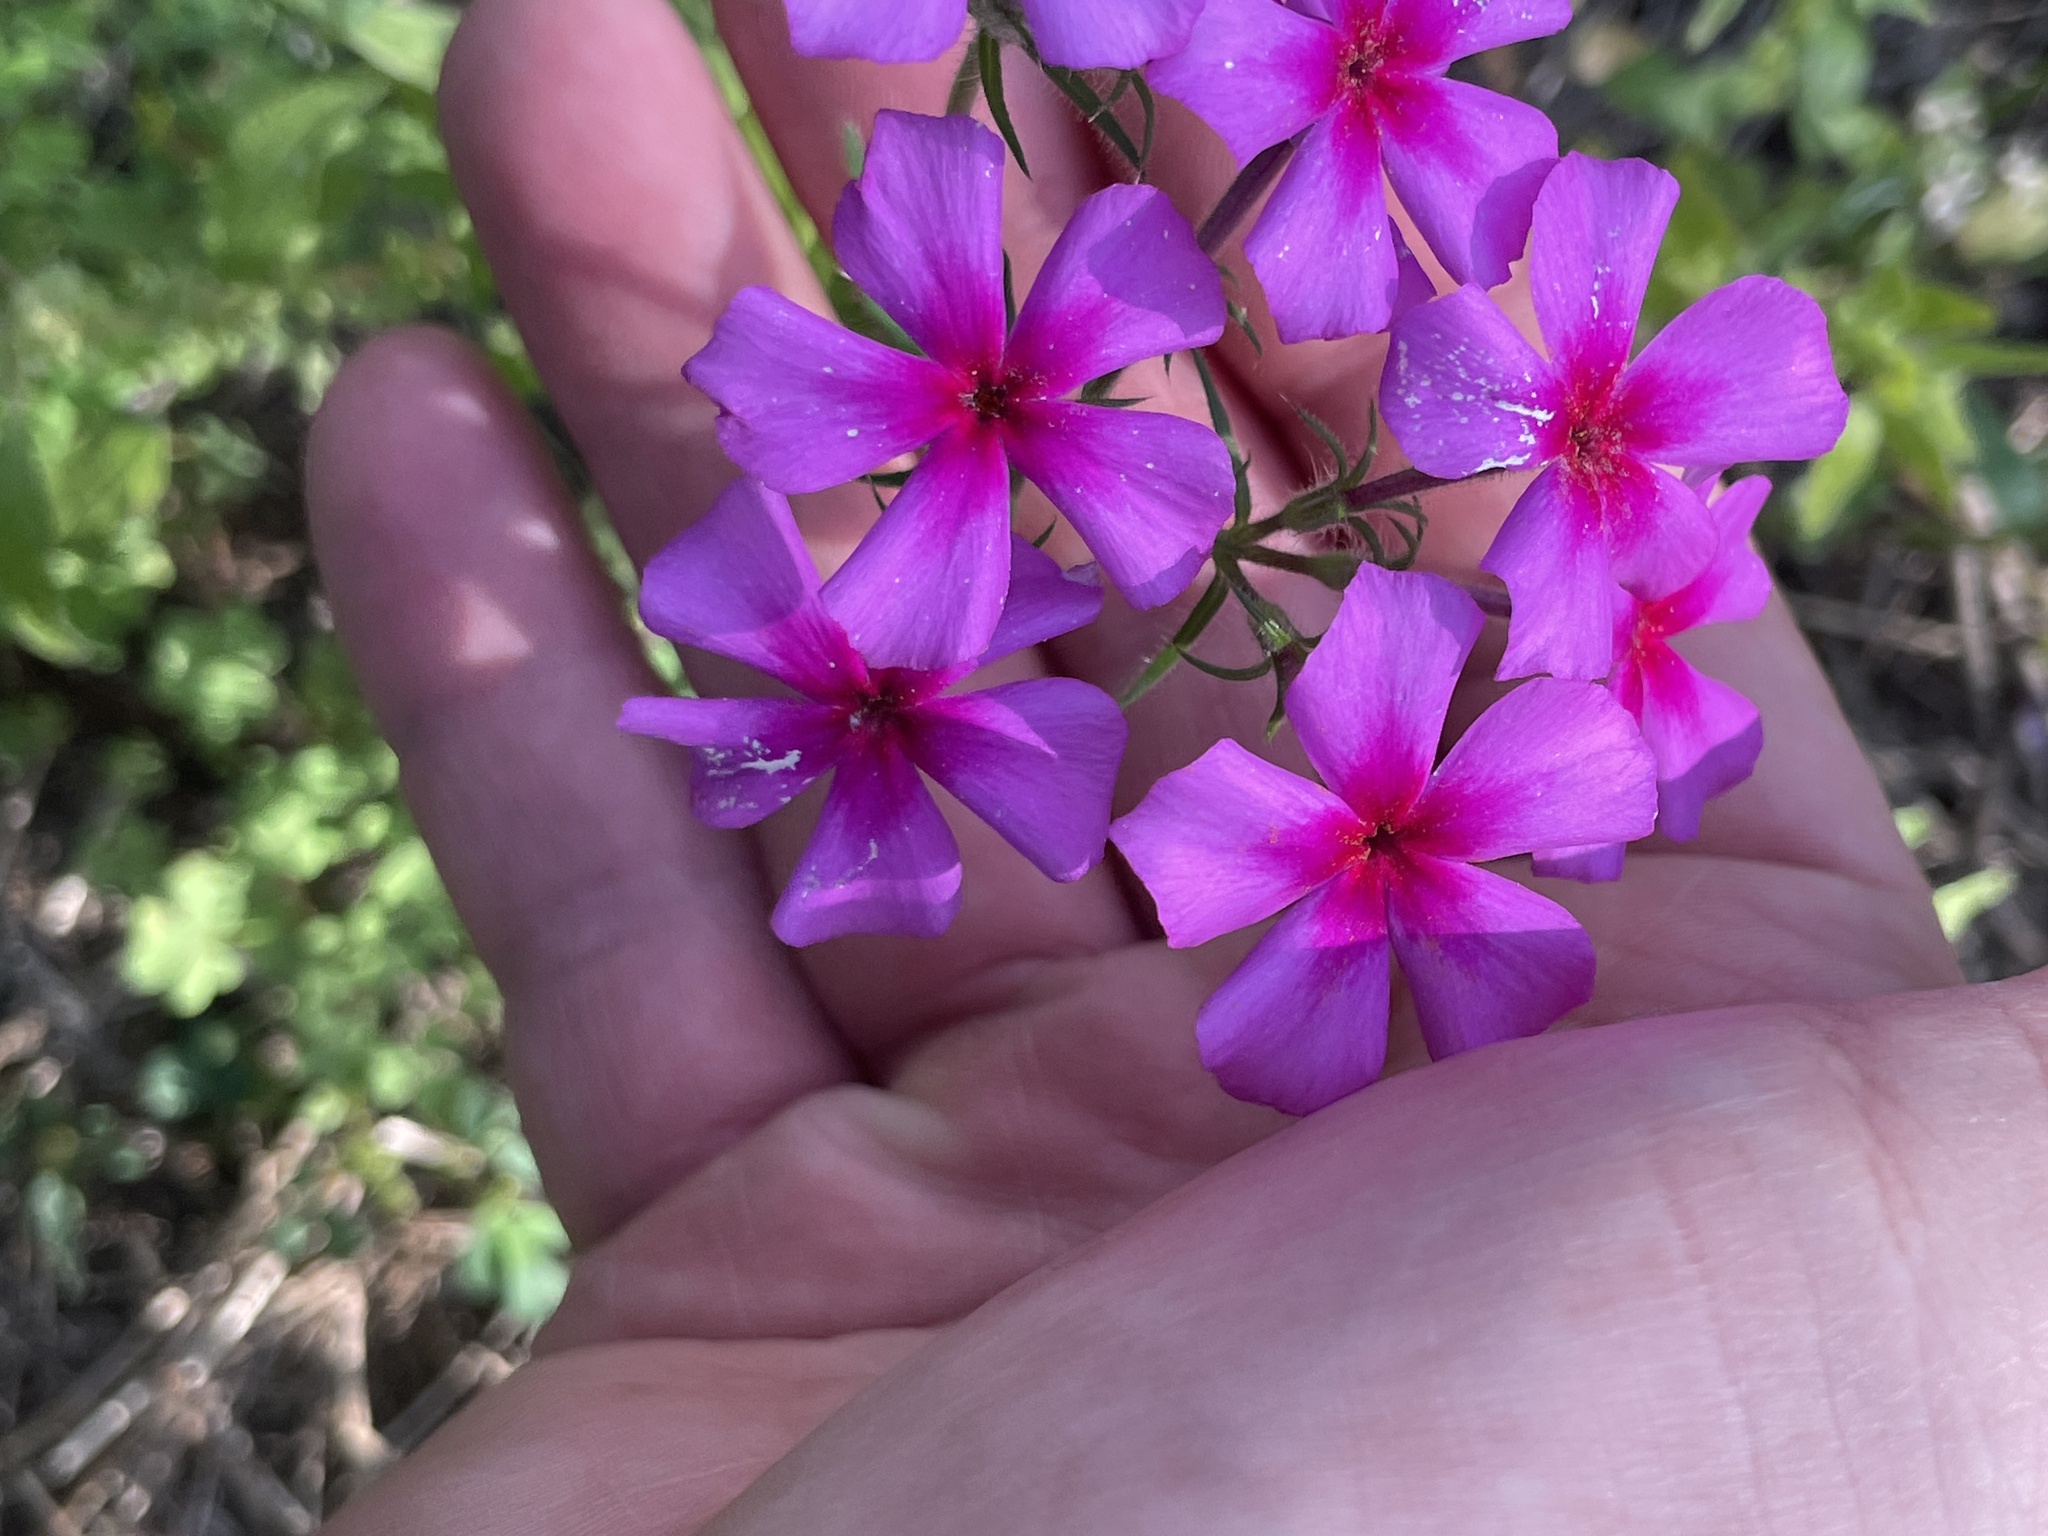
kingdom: Plantae
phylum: Tracheophyta
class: Magnoliopsida
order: Ericales
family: Polemoniaceae
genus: Phlox
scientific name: Phlox drummondii
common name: Drummond's phlox
